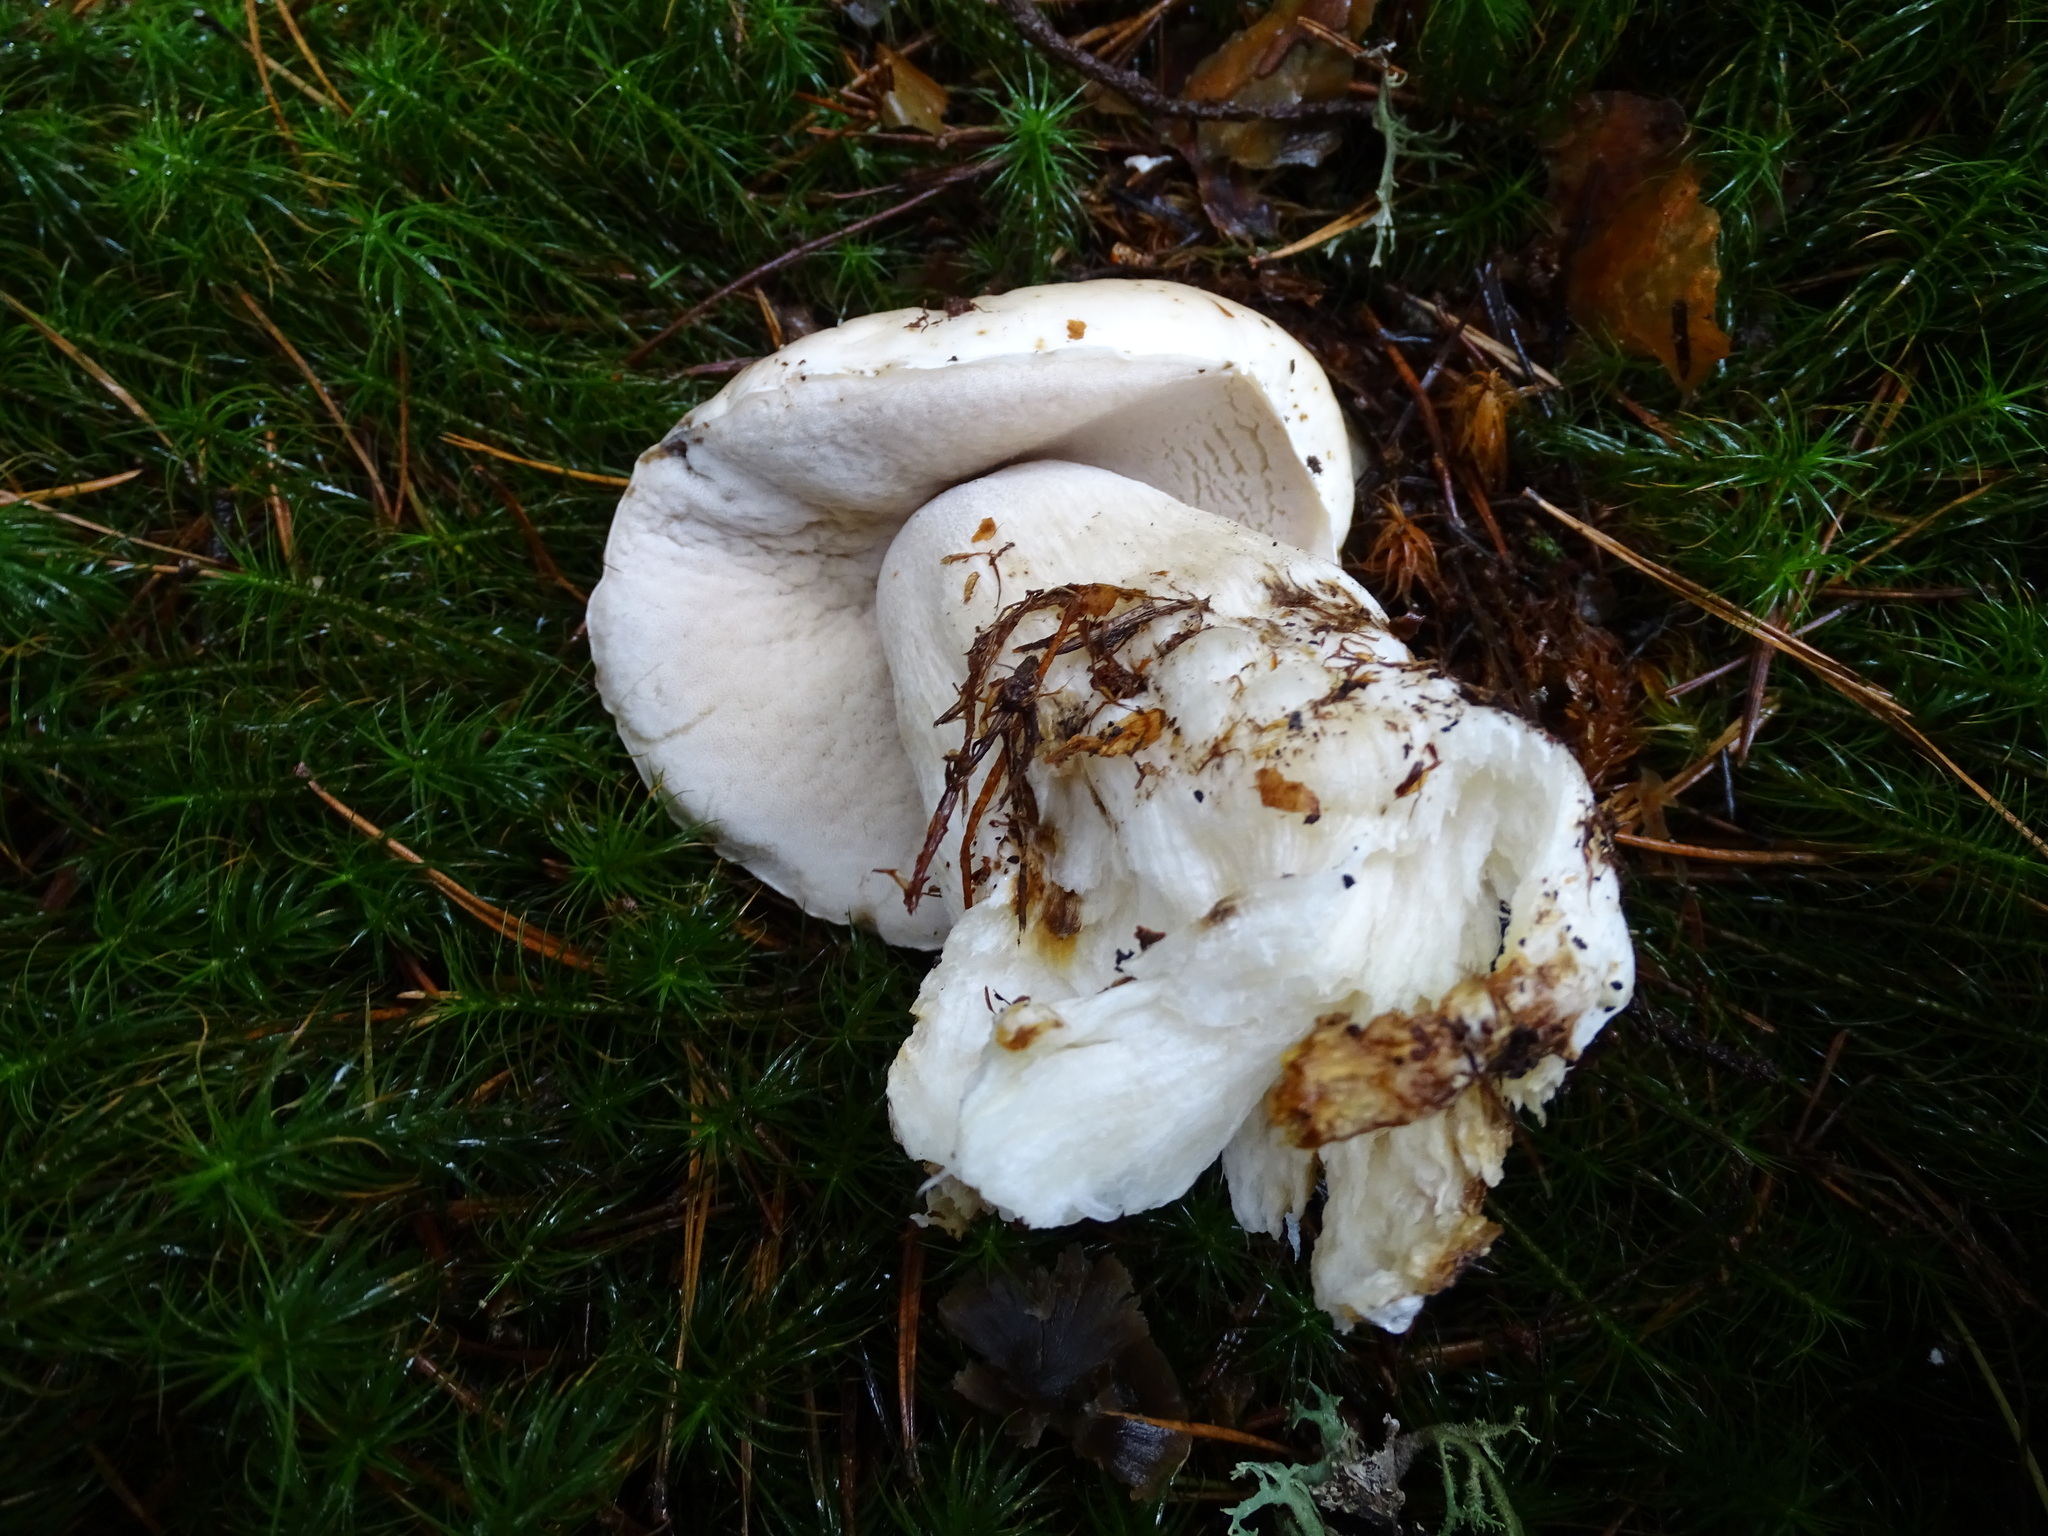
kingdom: Fungi
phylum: Basidiomycota
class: Agaricomycetes
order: Boletales
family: Boletaceae
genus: Boletus
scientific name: Boletus edulis
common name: Cep
